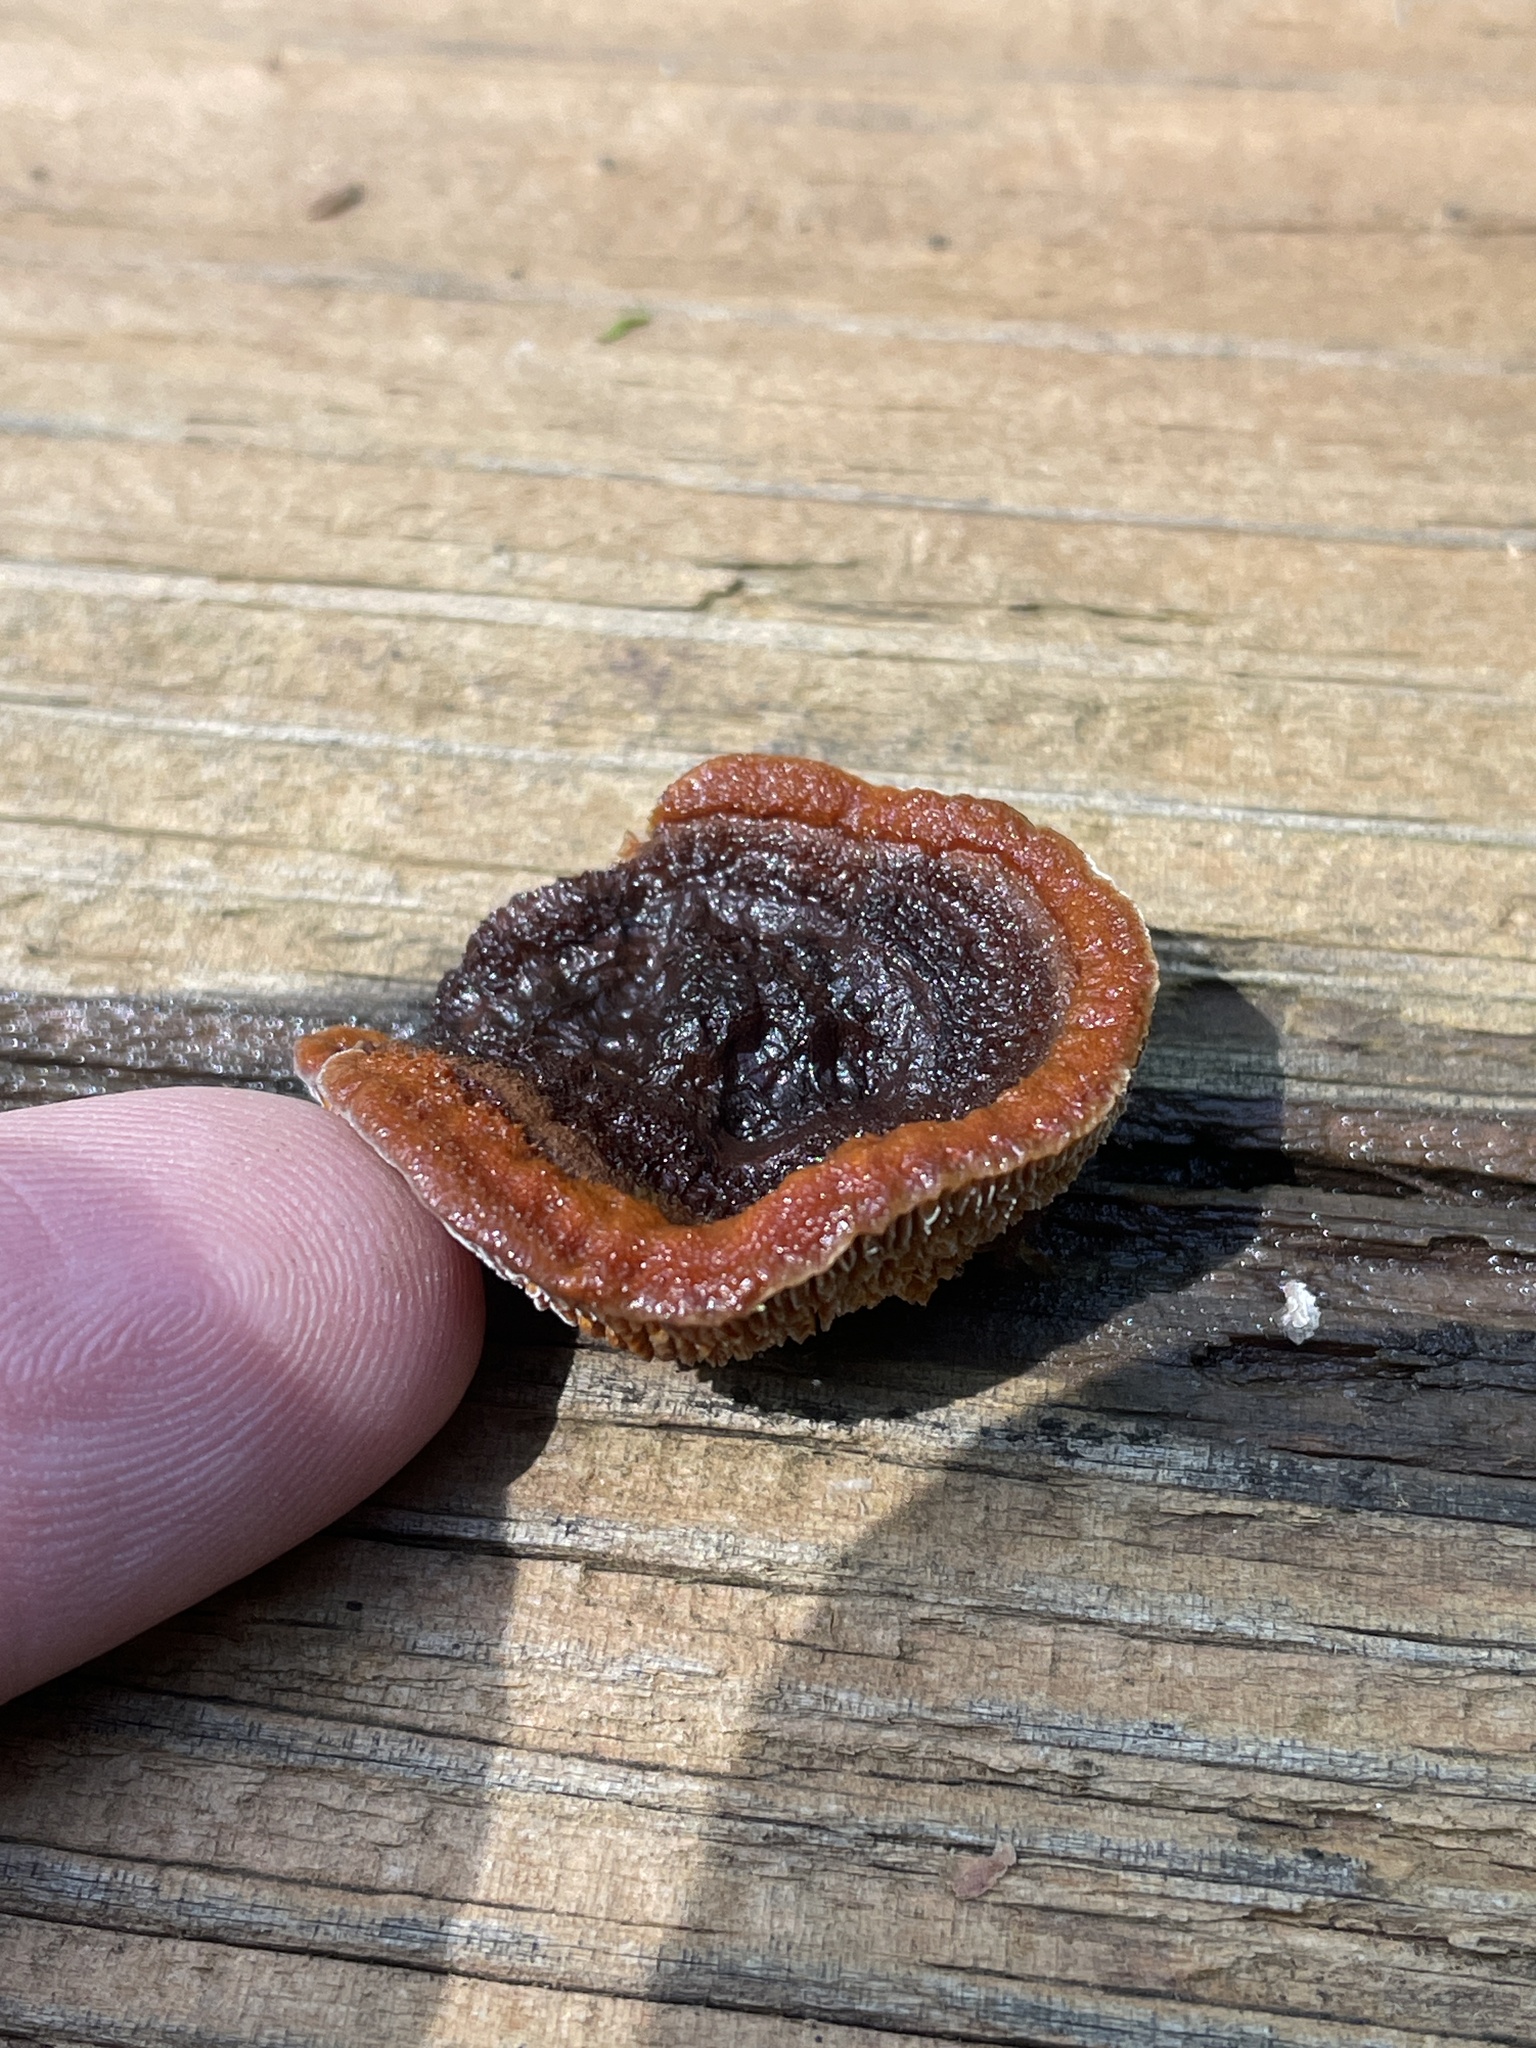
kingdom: Fungi
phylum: Basidiomycota
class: Agaricomycetes
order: Gloeophyllales
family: Gloeophyllaceae
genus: Gloeophyllum
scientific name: Gloeophyllum sepiarium
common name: Conifer mazegill
